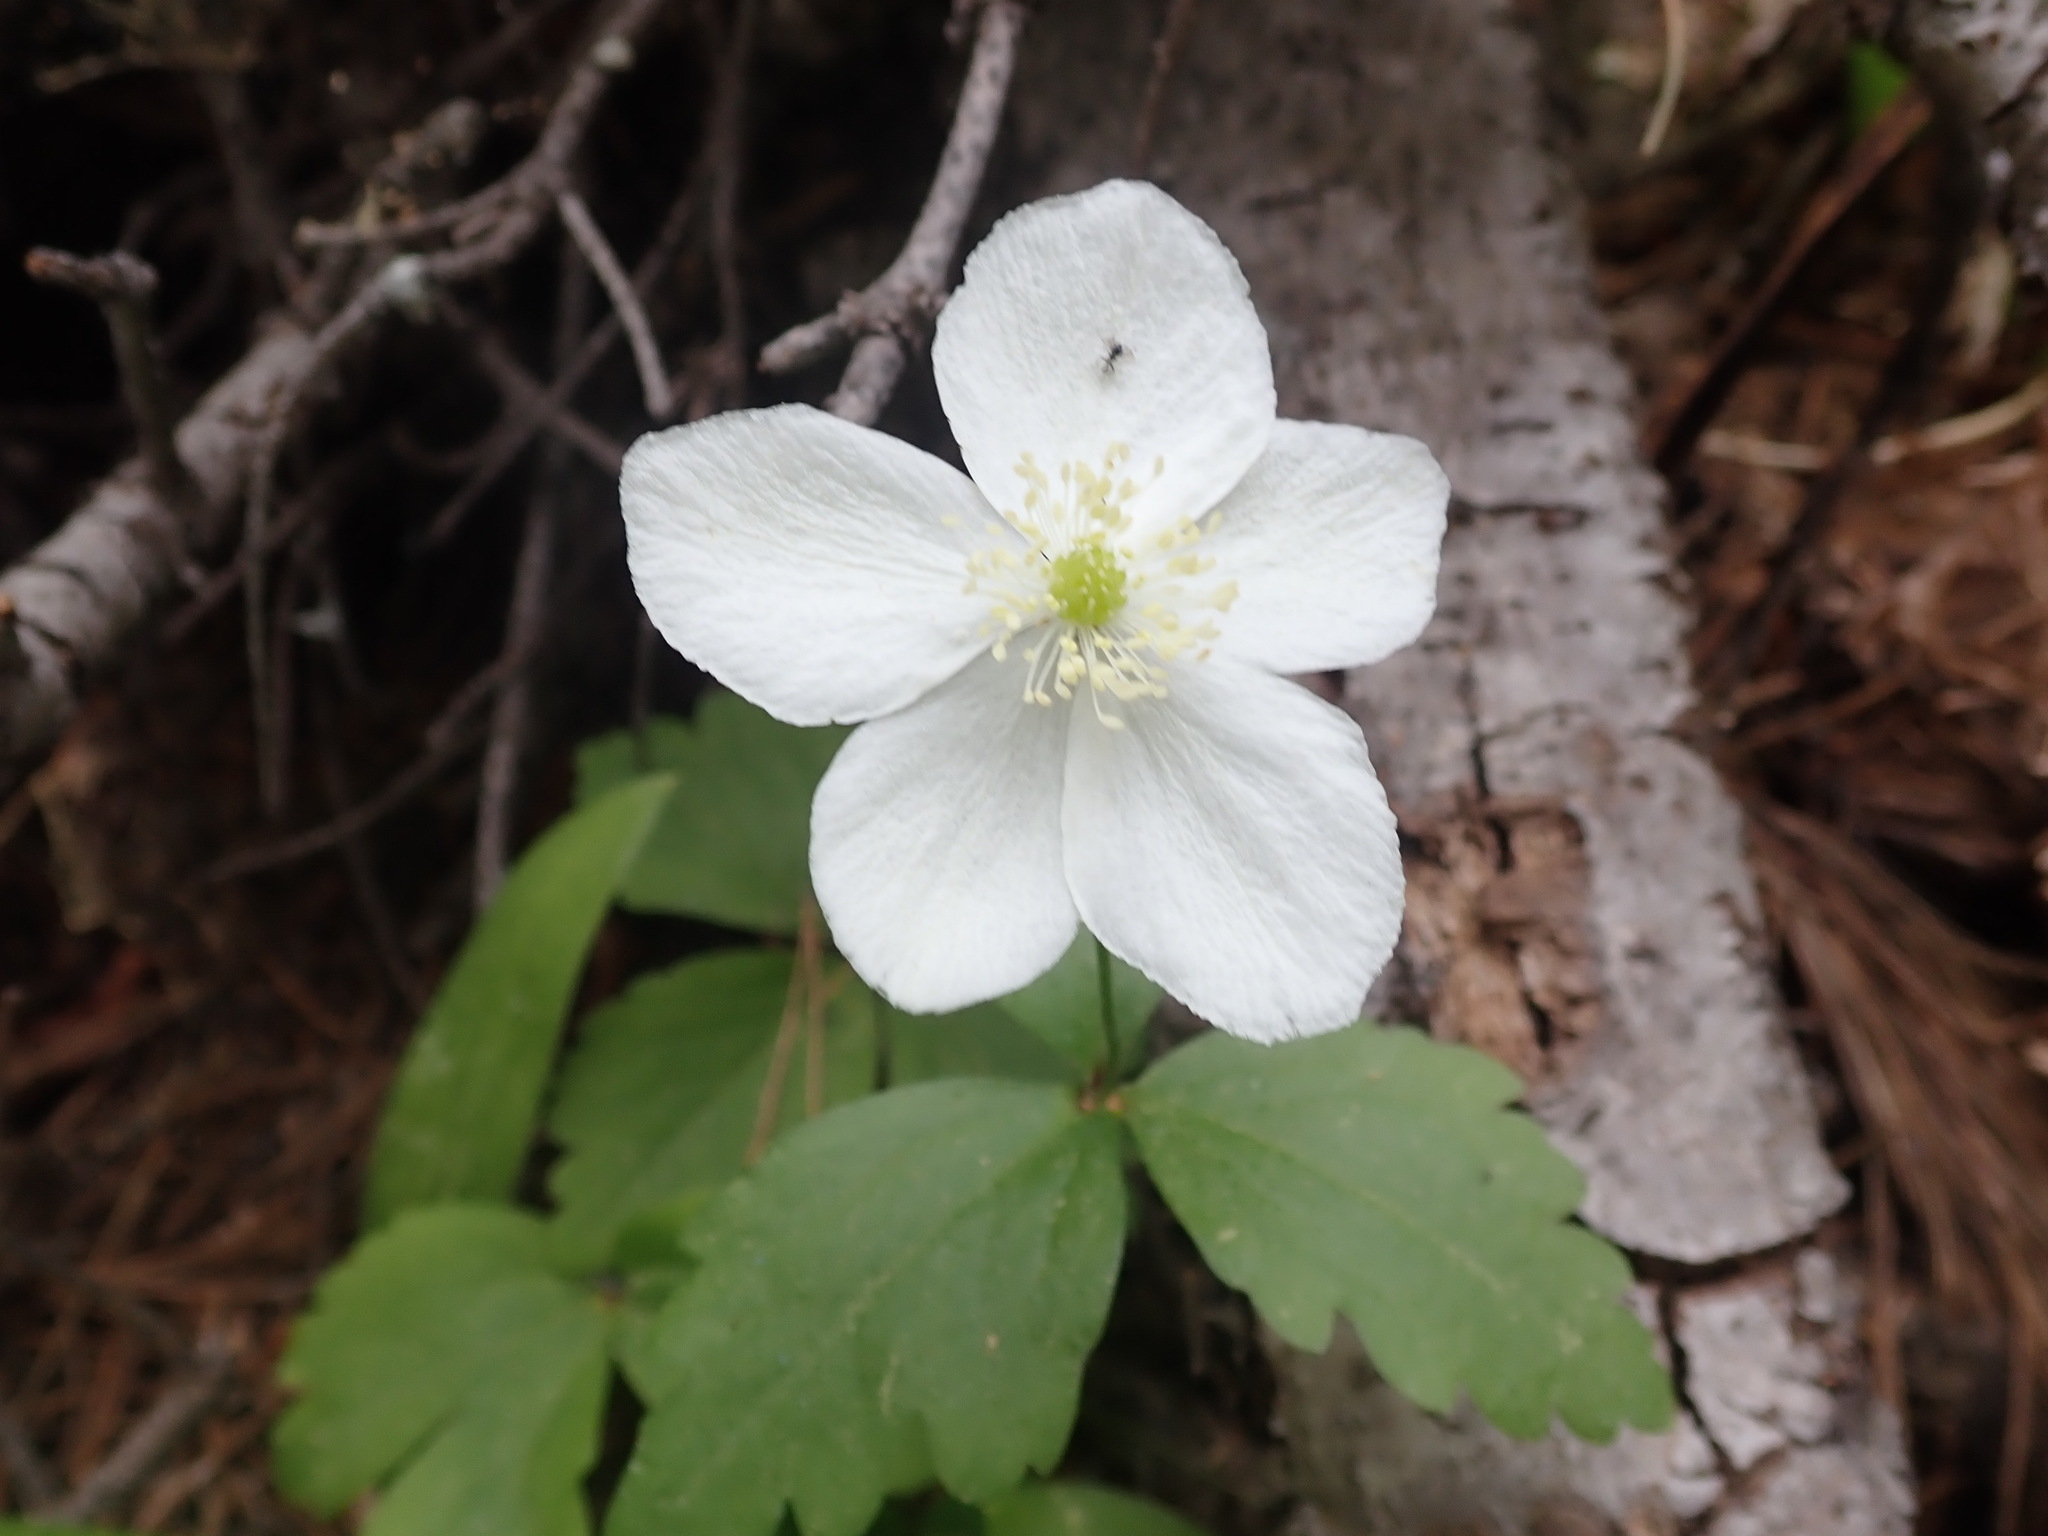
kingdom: Plantae
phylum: Tracheophyta
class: Magnoliopsida
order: Ranunculales
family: Ranunculaceae
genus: Anemonastrum
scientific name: Anemonastrum deltoideum
